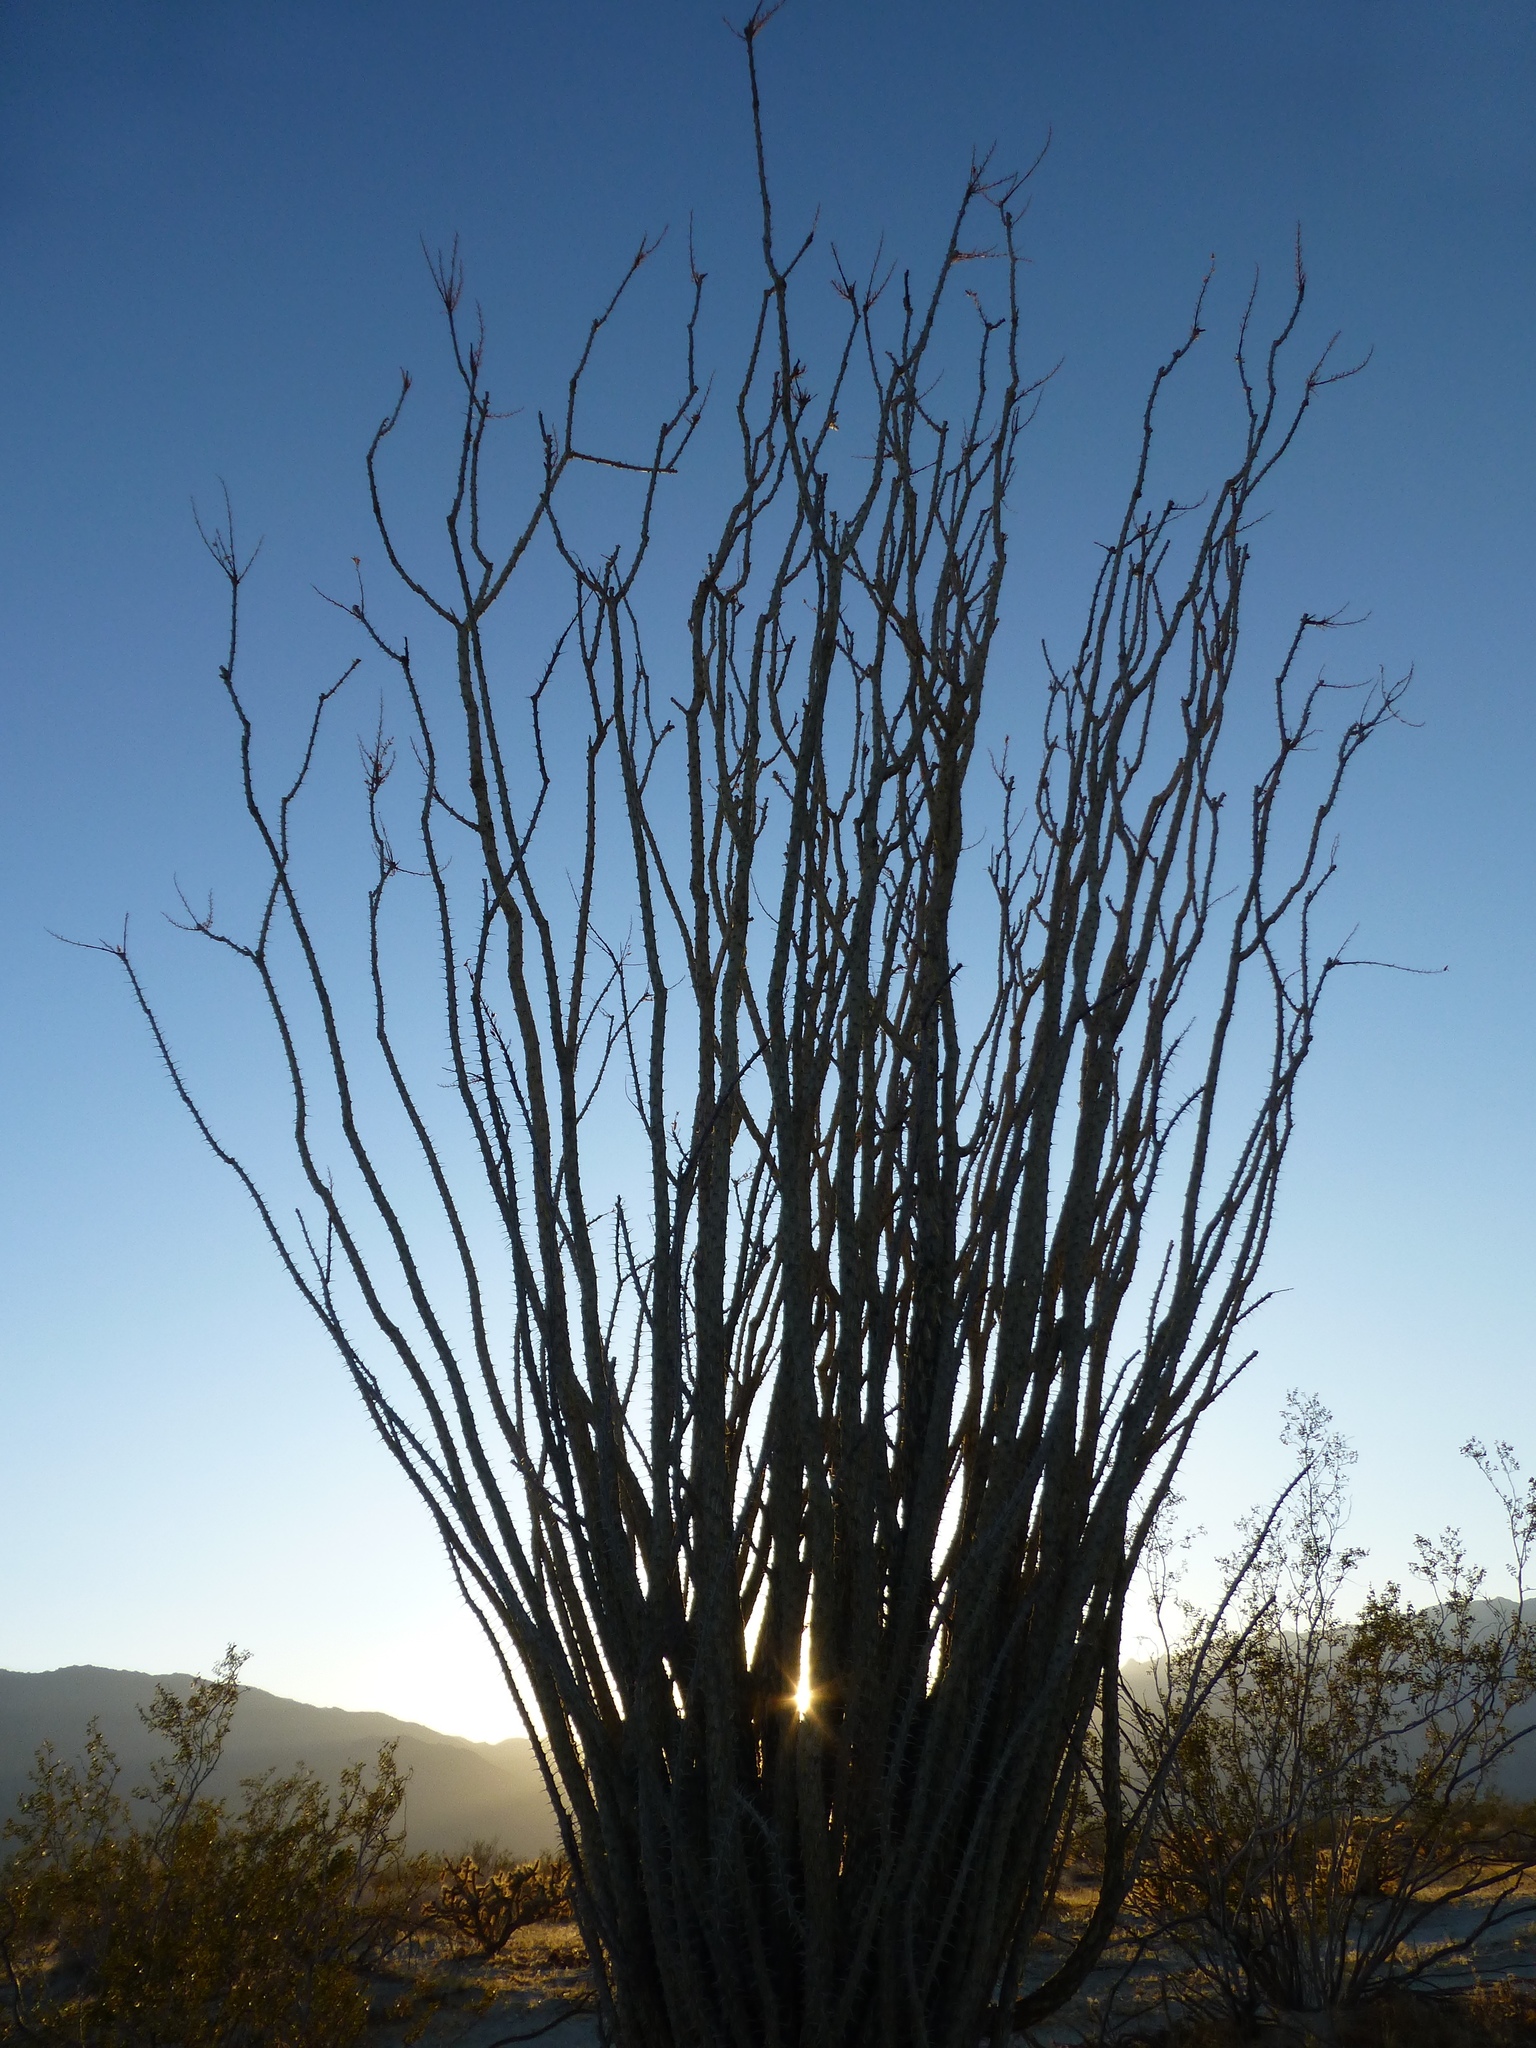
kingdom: Plantae
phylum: Tracheophyta
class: Magnoliopsida
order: Ericales
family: Fouquieriaceae
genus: Fouquieria
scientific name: Fouquieria splendens
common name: Vine-cactus
